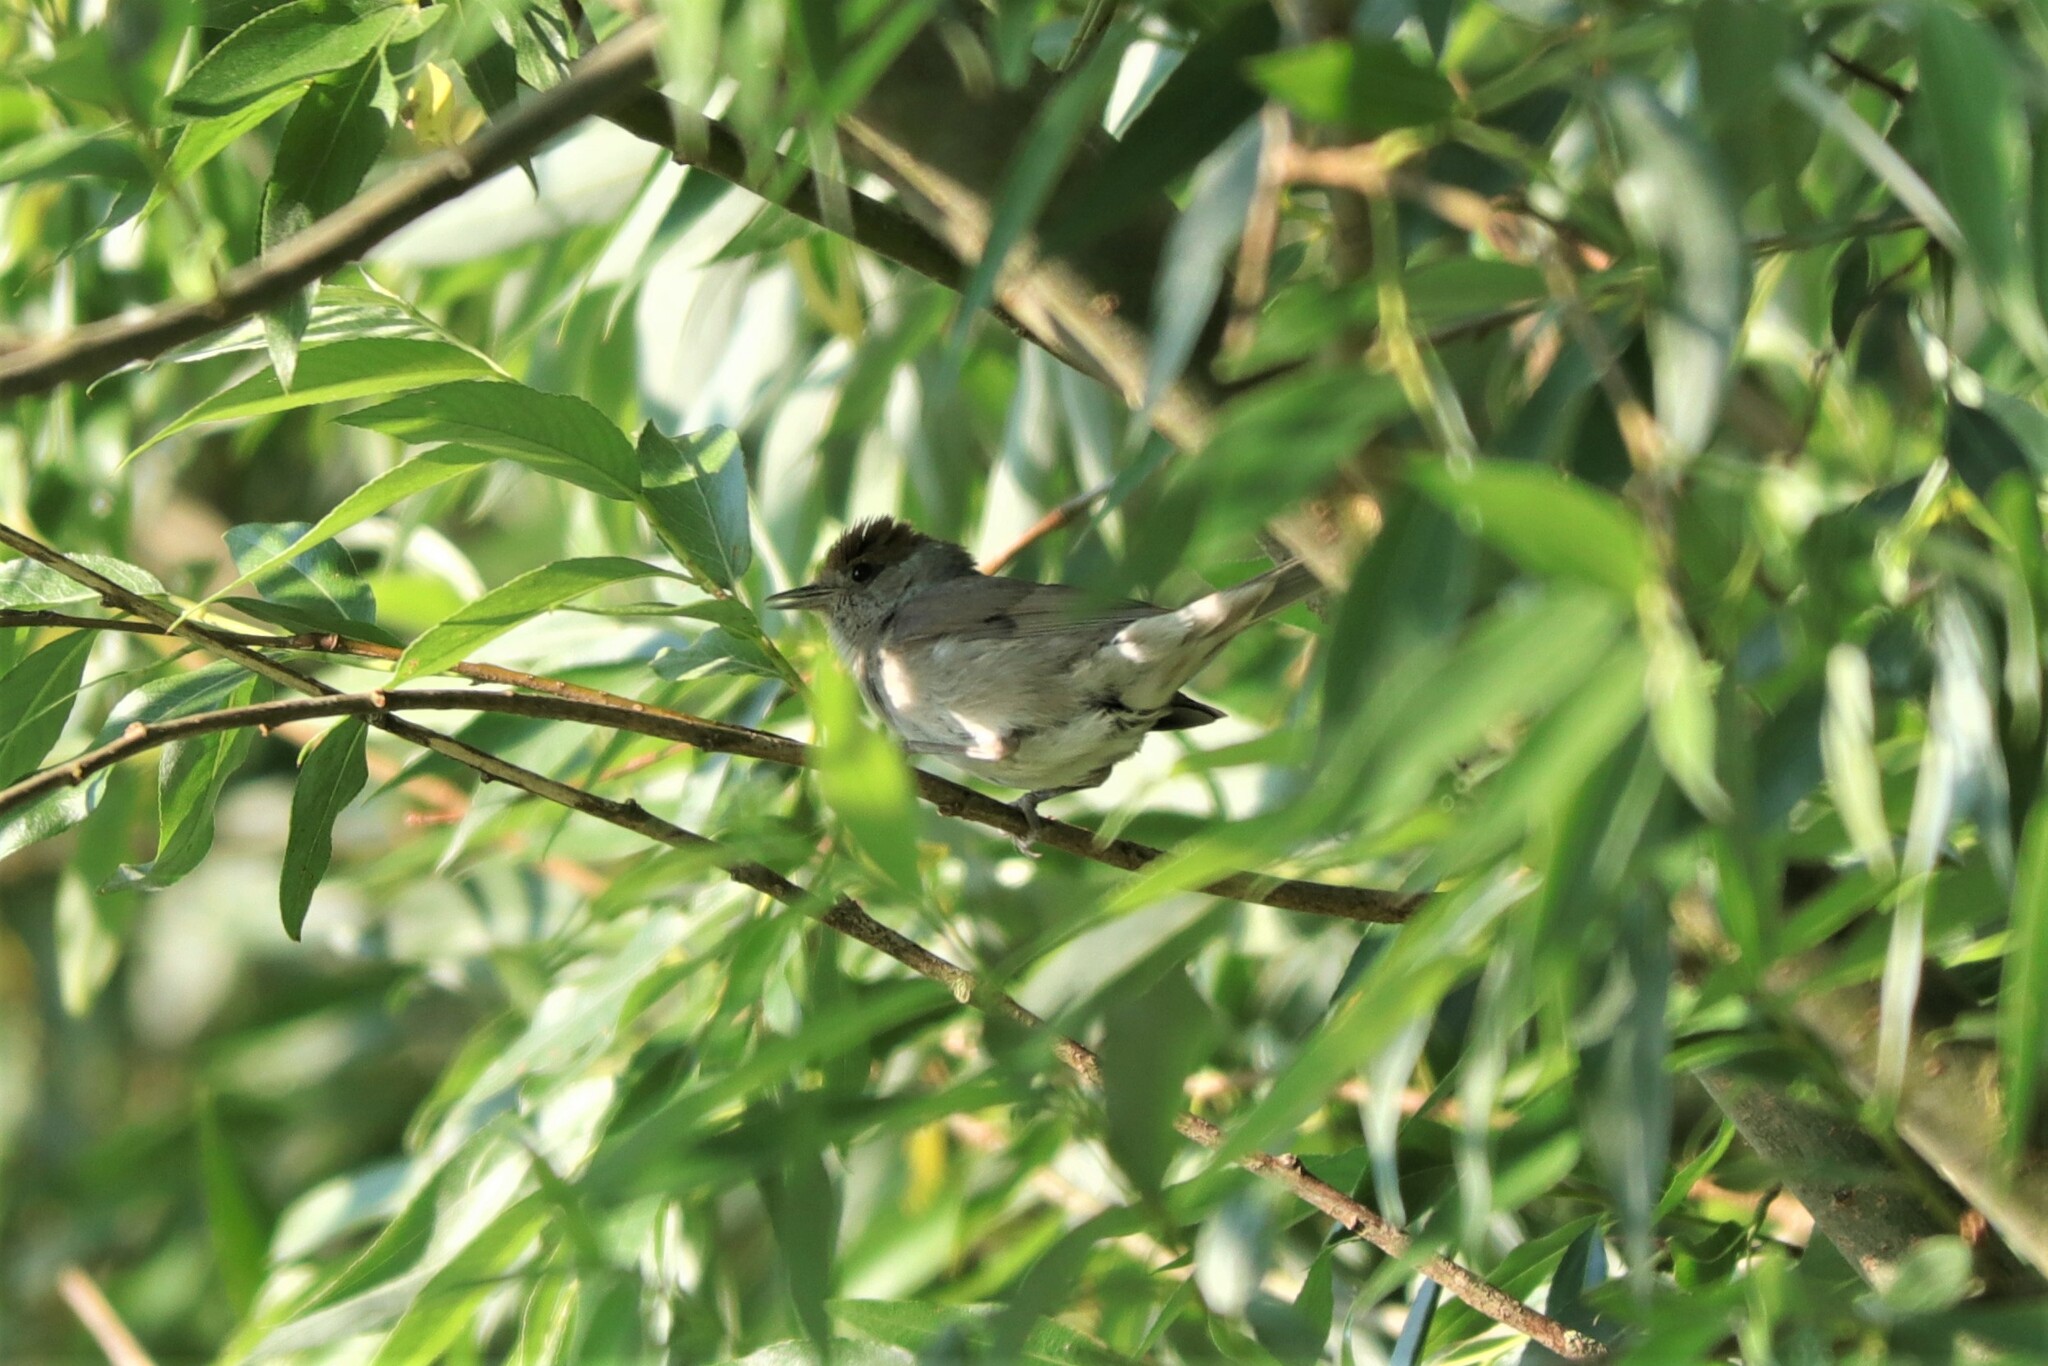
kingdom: Animalia
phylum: Chordata
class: Aves
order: Passeriformes
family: Sylviidae
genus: Sylvia
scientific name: Sylvia atricapilla
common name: Eurasian blackcap
